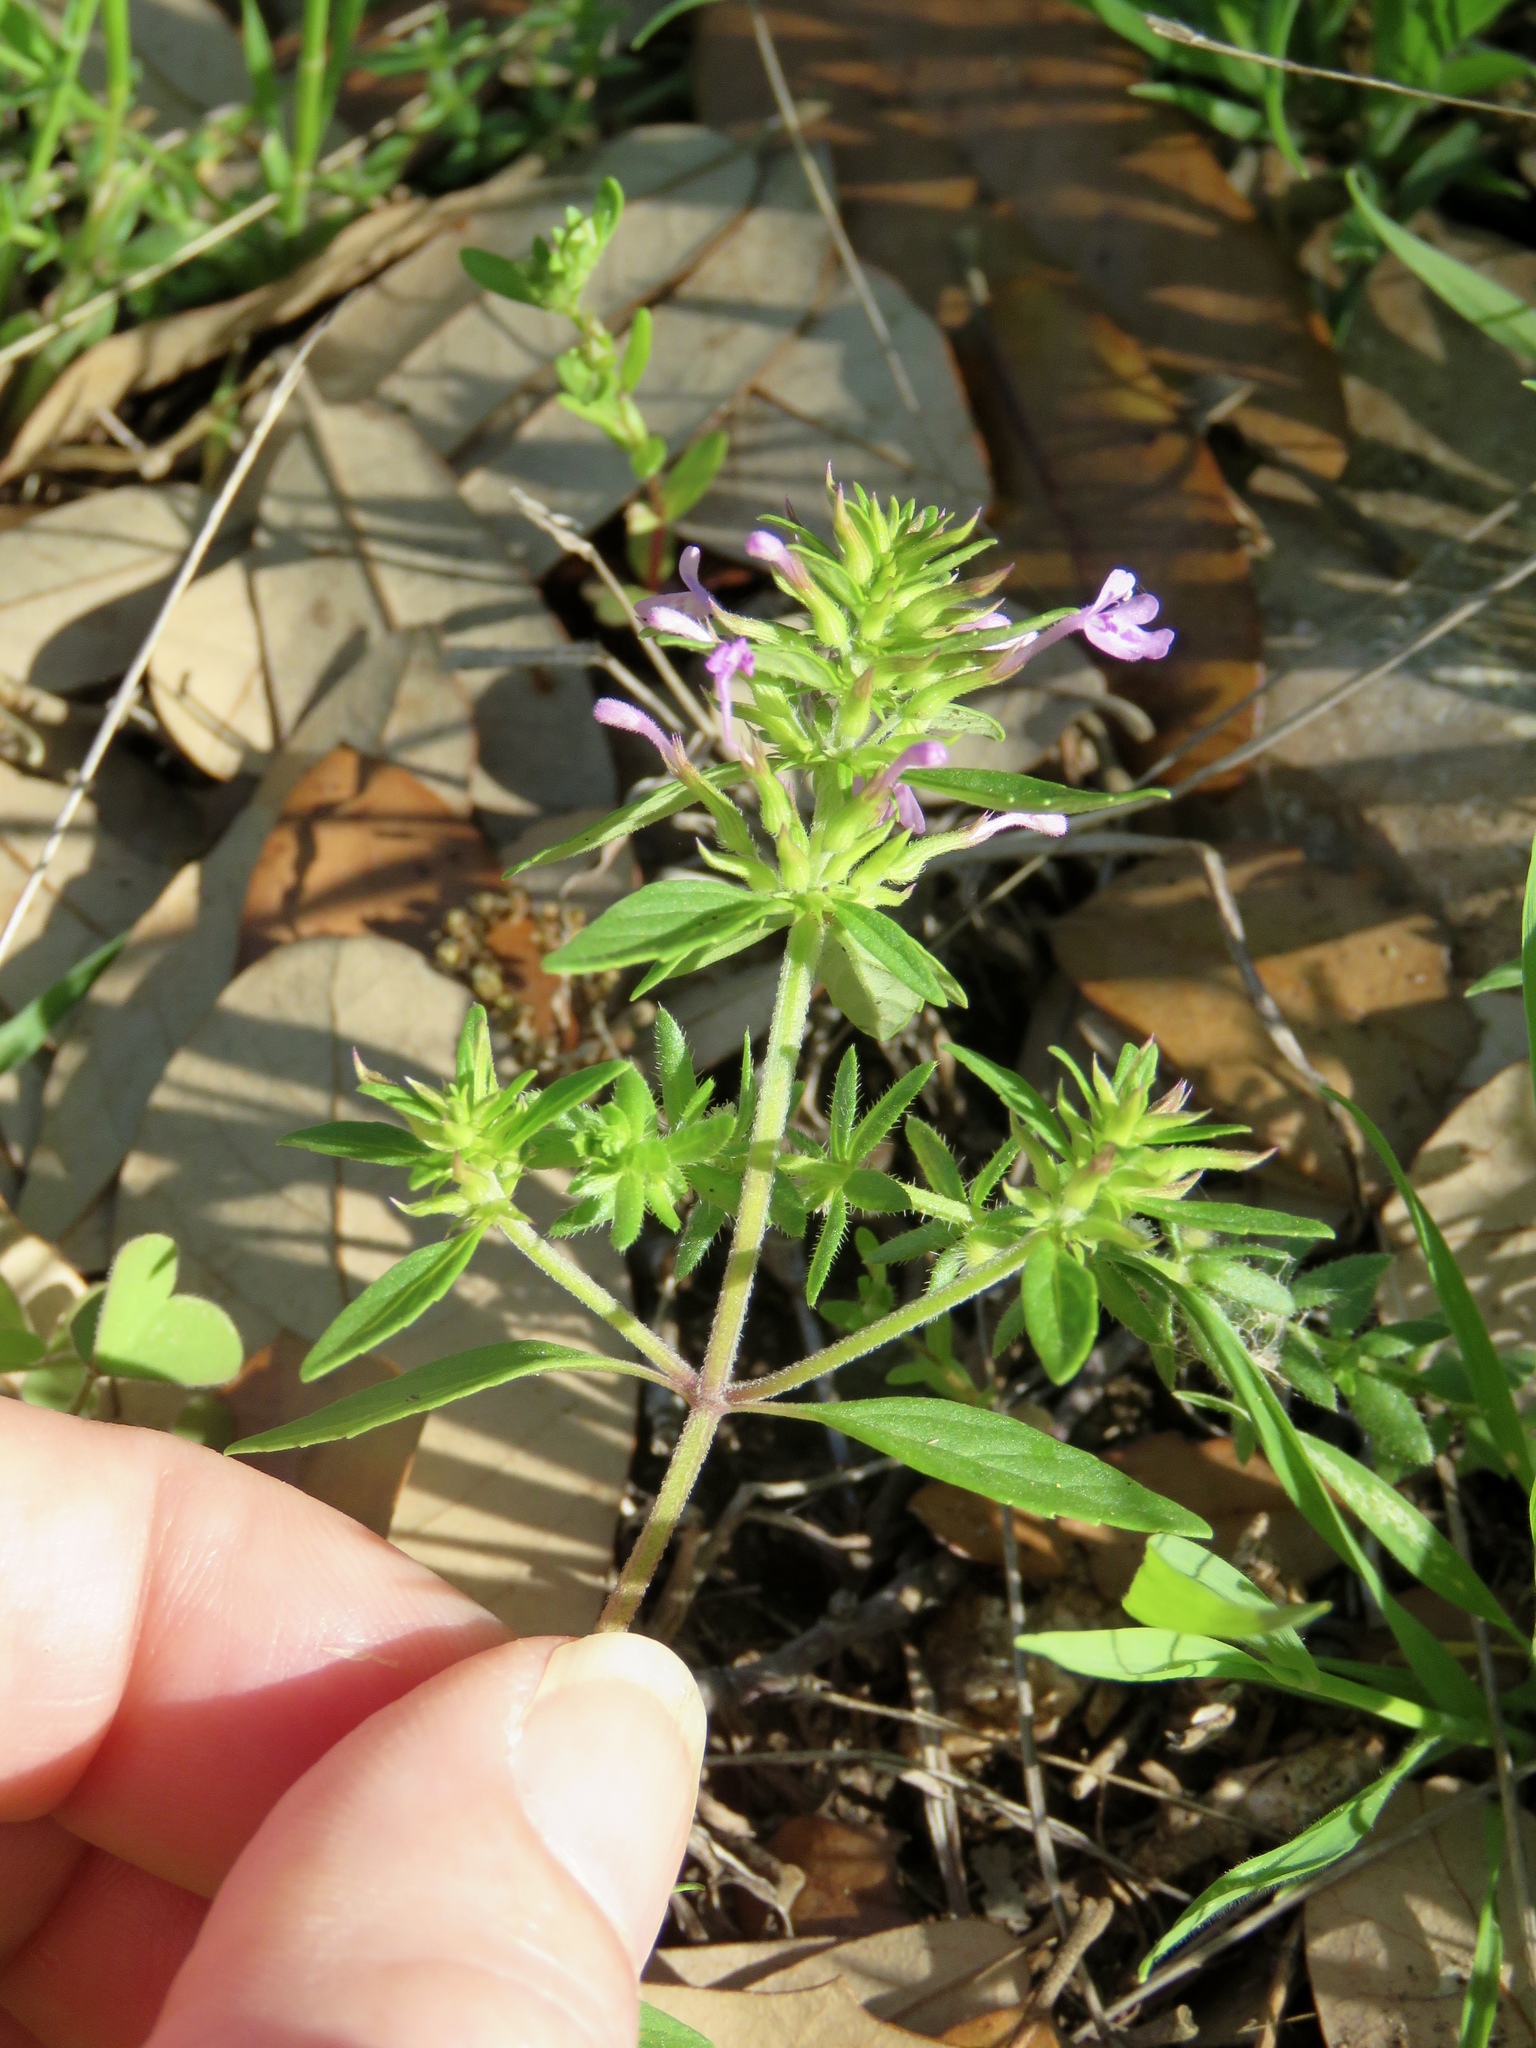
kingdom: Plantae
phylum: Tracheophyta
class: Magnoliopsida
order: Lamiales
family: Lamiaceae
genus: Hedeoma
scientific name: Hedeoma acinoides
